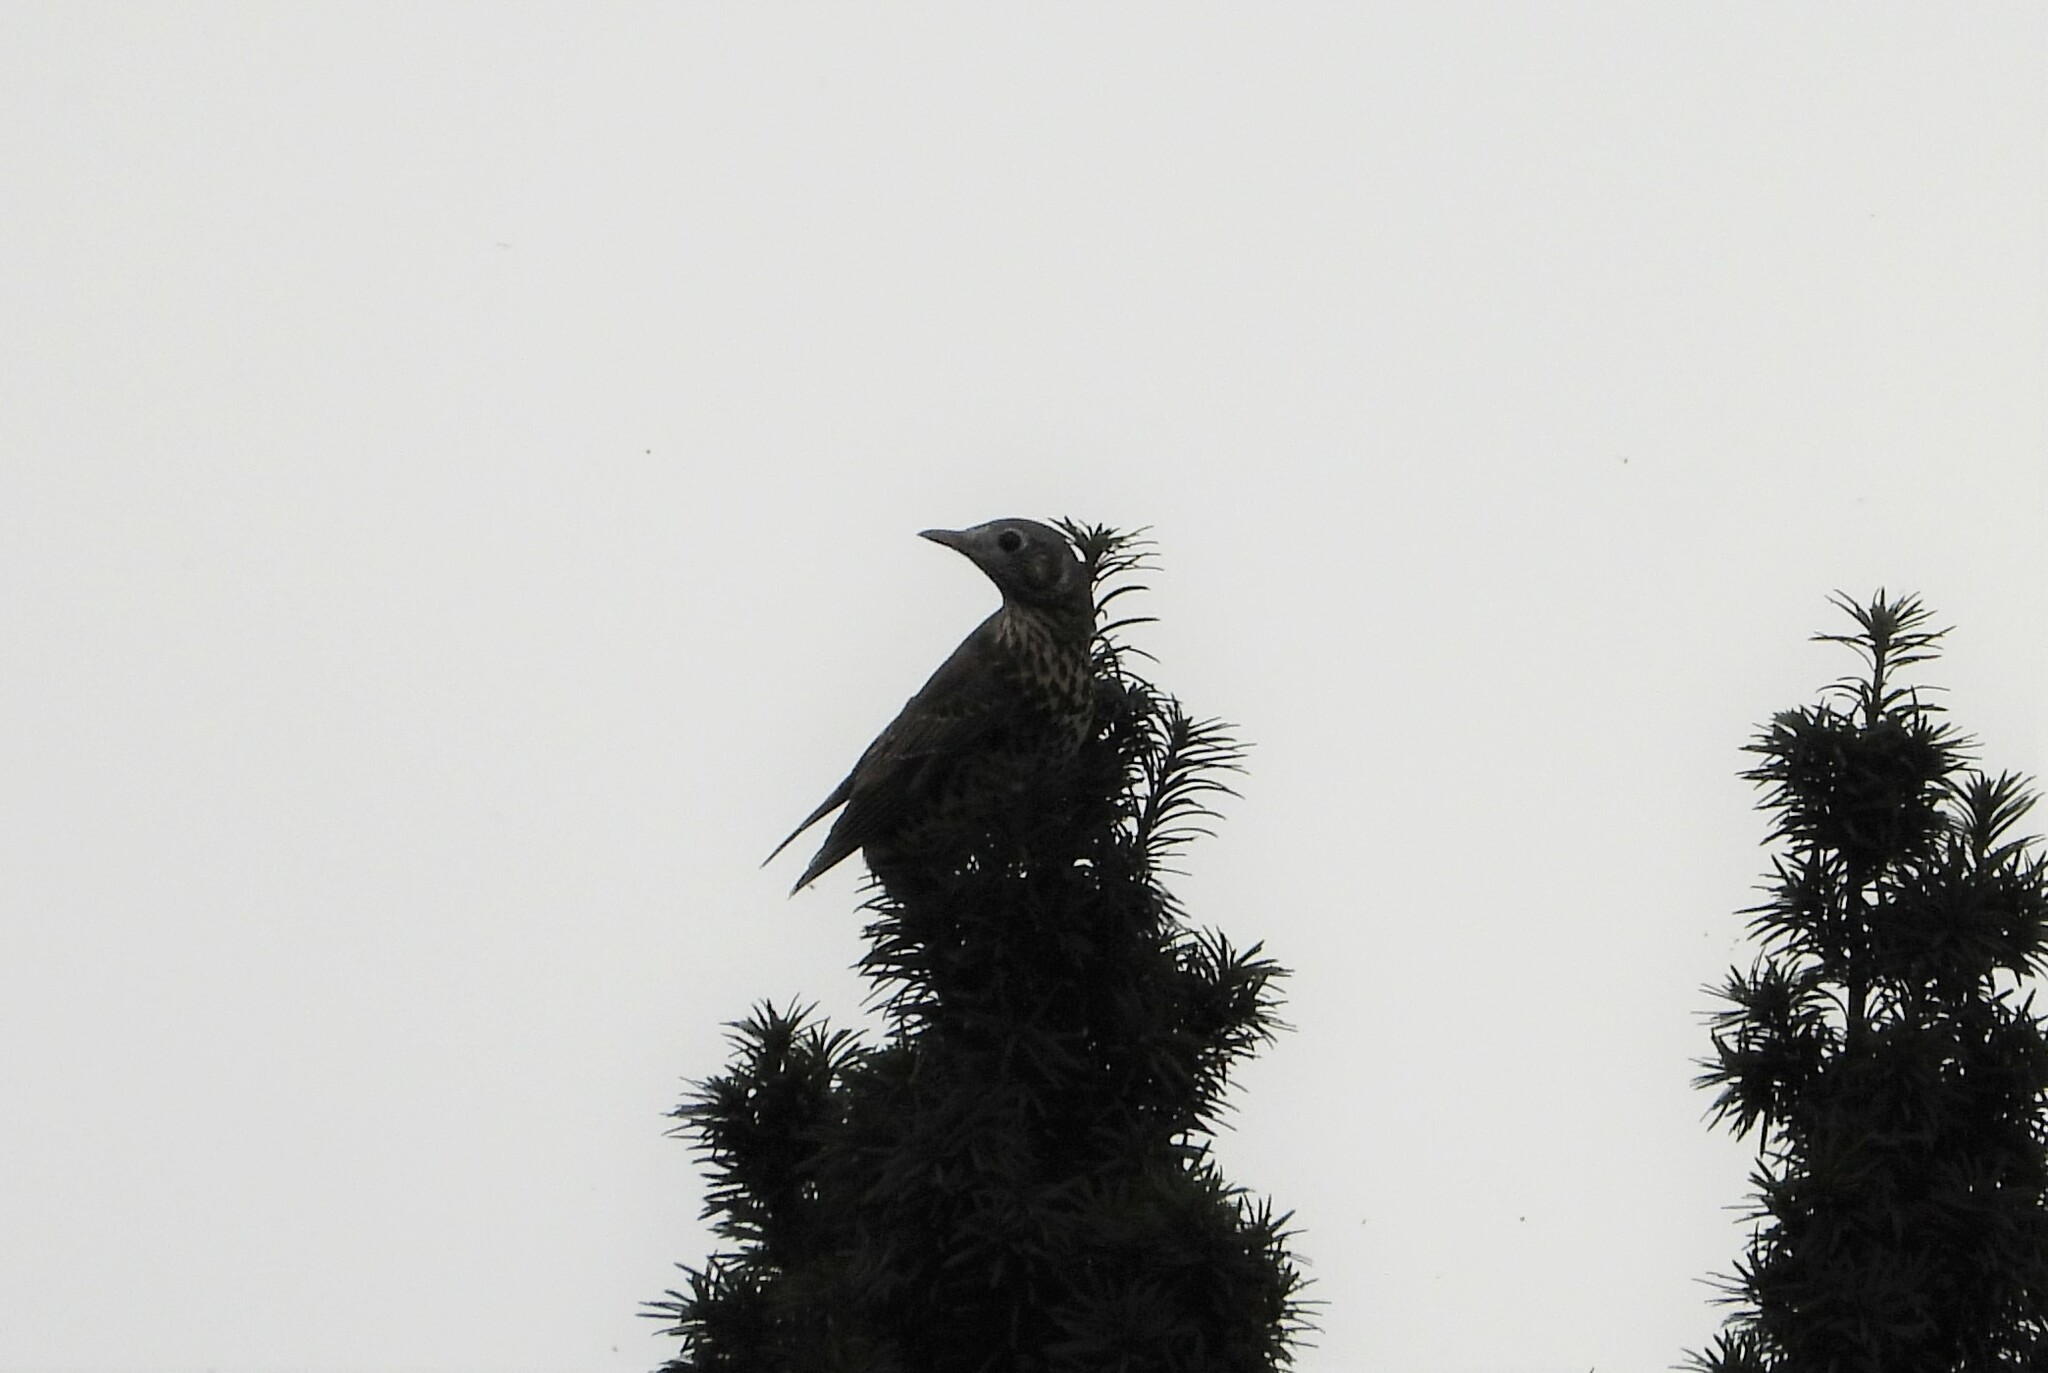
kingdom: Animalia
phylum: Chordata
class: Aves
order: Passeriformes
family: Turdidae
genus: Turdus
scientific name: Turdus viscivorus
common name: Mistle thrush
